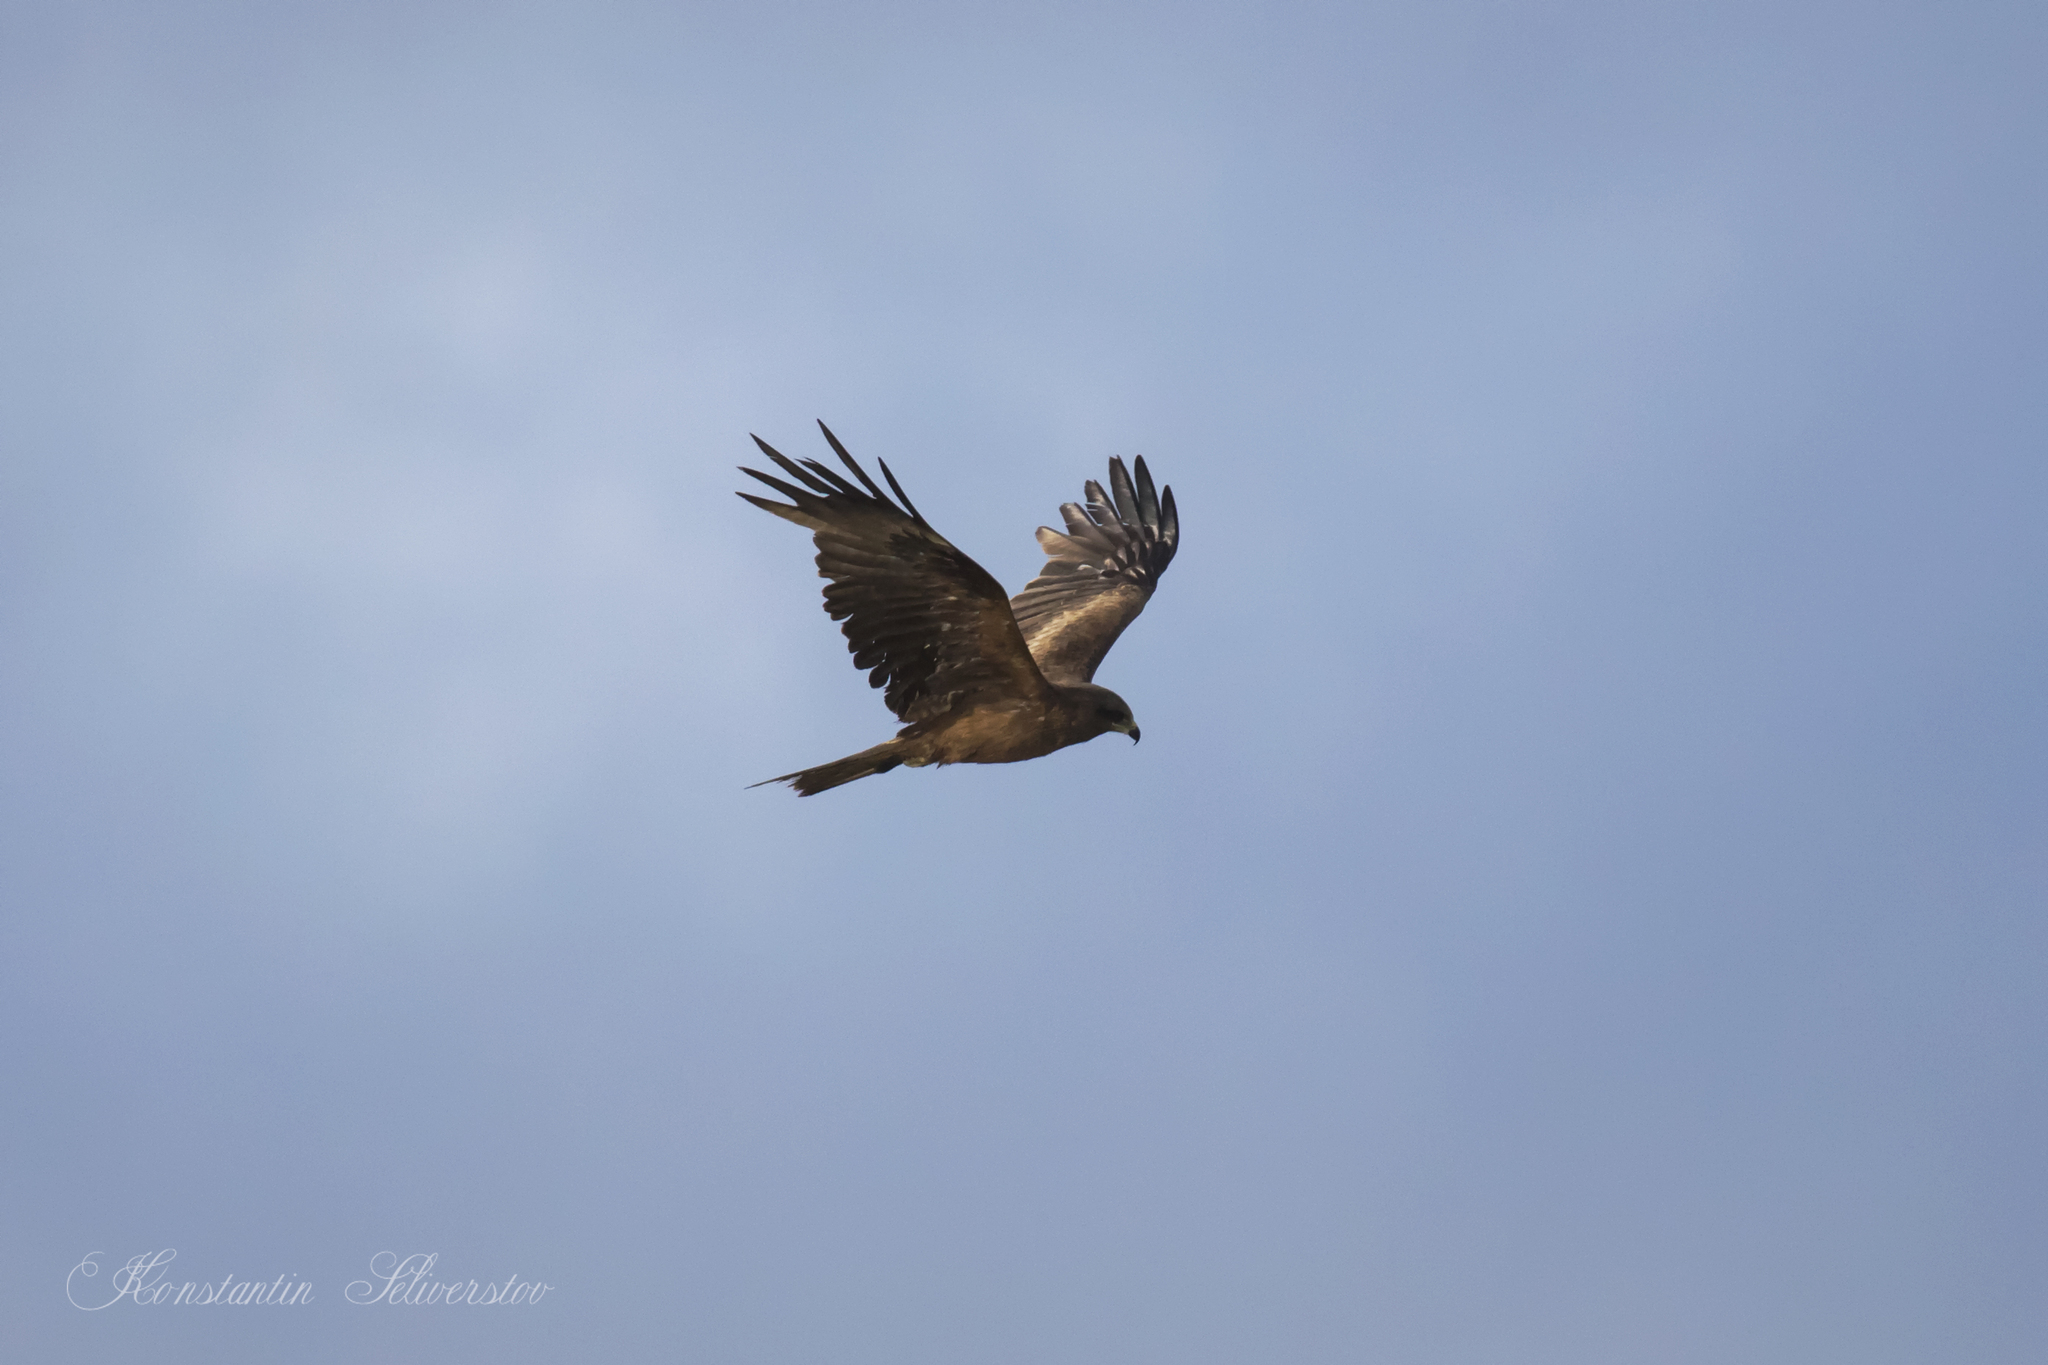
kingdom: Animalia
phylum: Chordata
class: Aves
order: Accipitriformes
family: Accipitridae
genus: Milvus
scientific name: Milvus migrans
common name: Black kite
